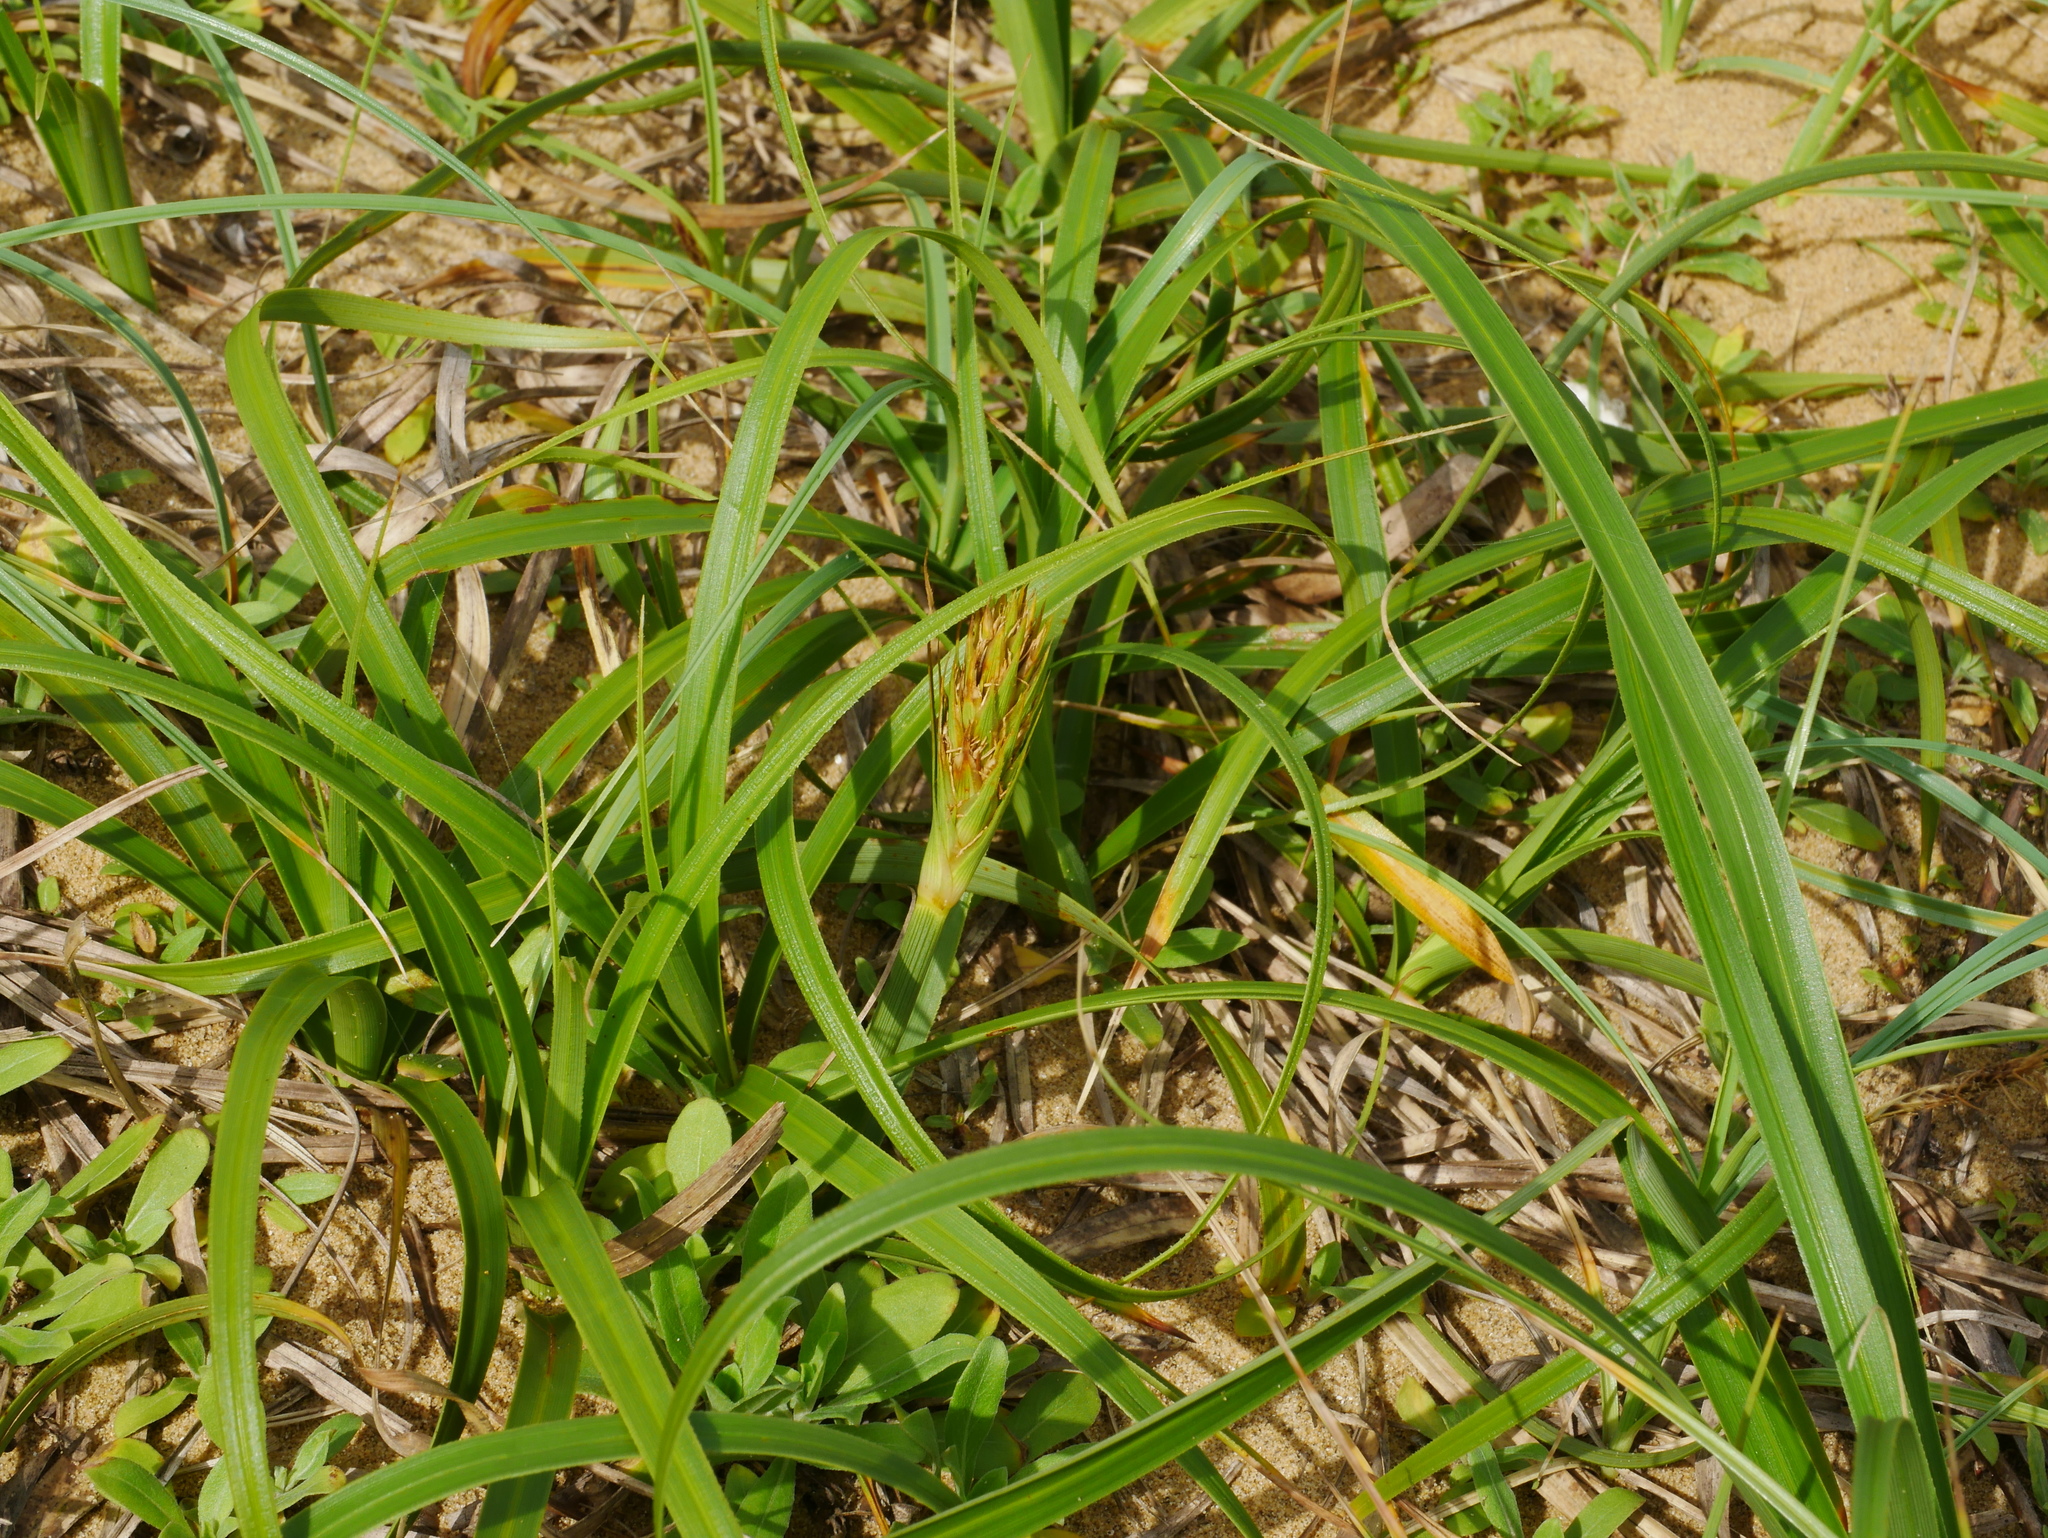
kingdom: Plantae
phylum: Tracheophyta
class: Liliopsida
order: Poales
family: Cyperaceae
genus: Carex
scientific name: Carex kobomugi
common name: Japanese sedge
